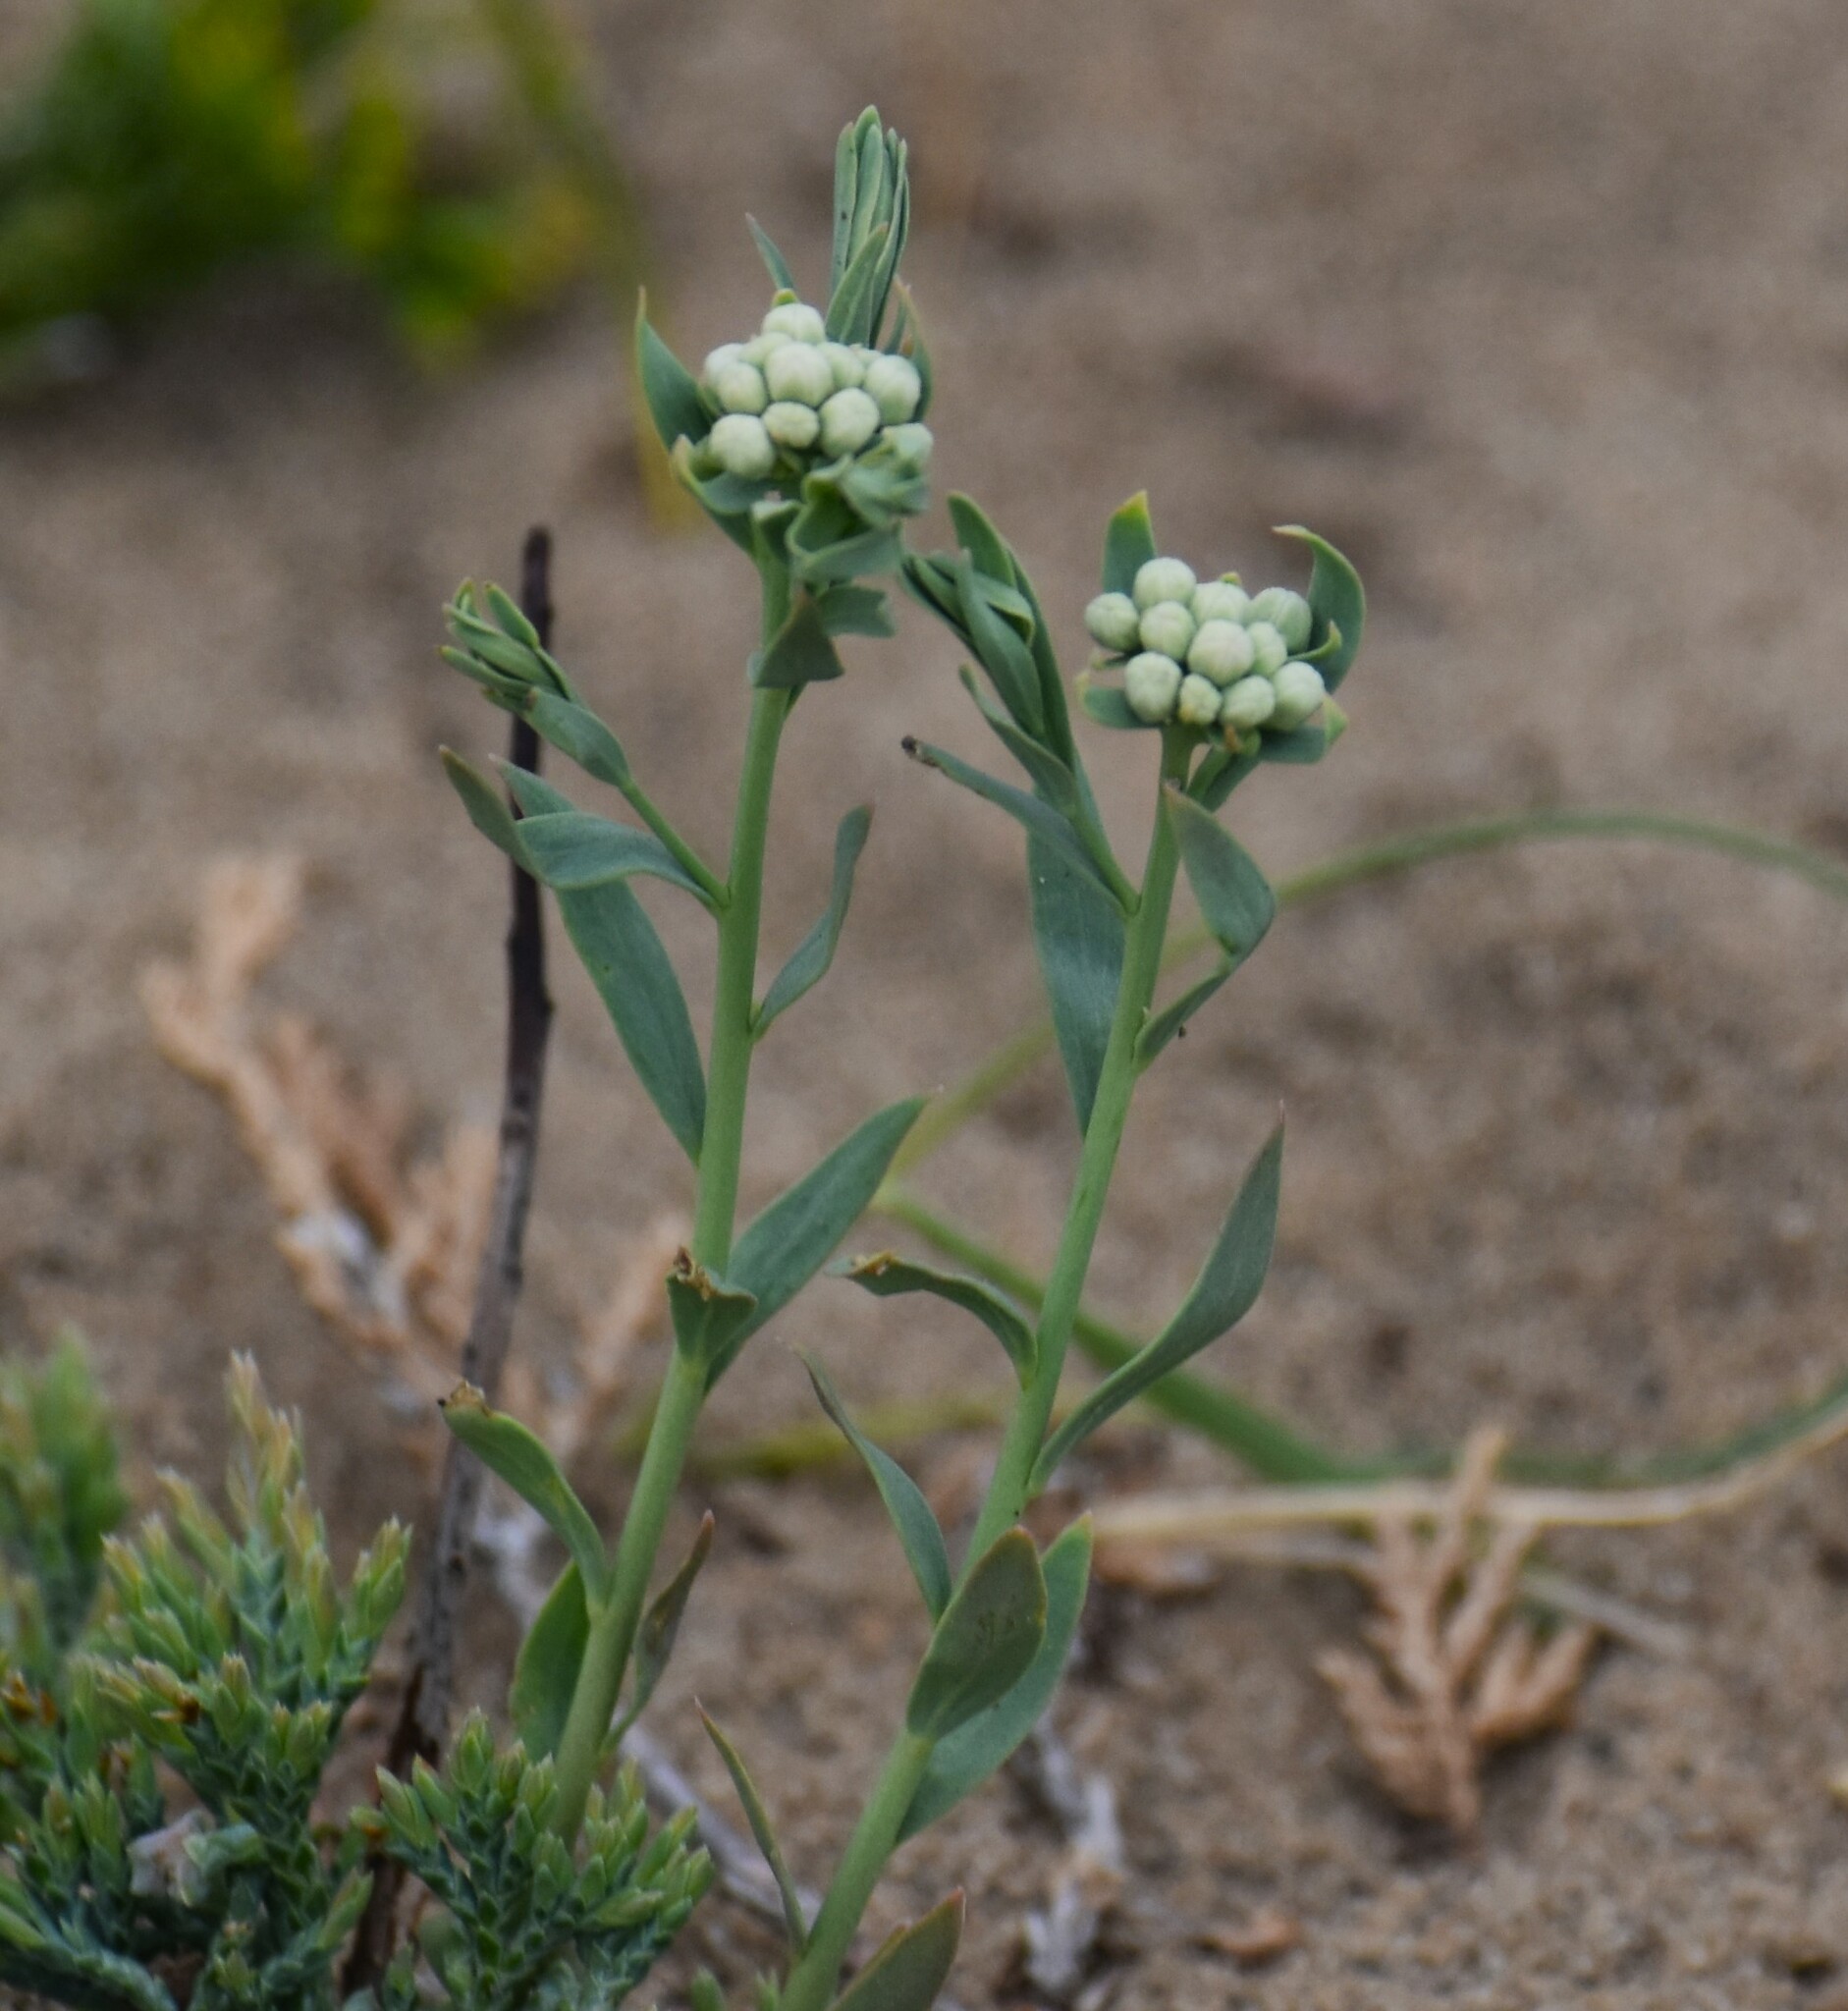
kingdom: Plantae
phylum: Tracheophyta
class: Magnoliopsida
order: Santalales
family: Comandraceae
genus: Comandra
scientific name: Comandra umbellata
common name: Bastard toadflax
